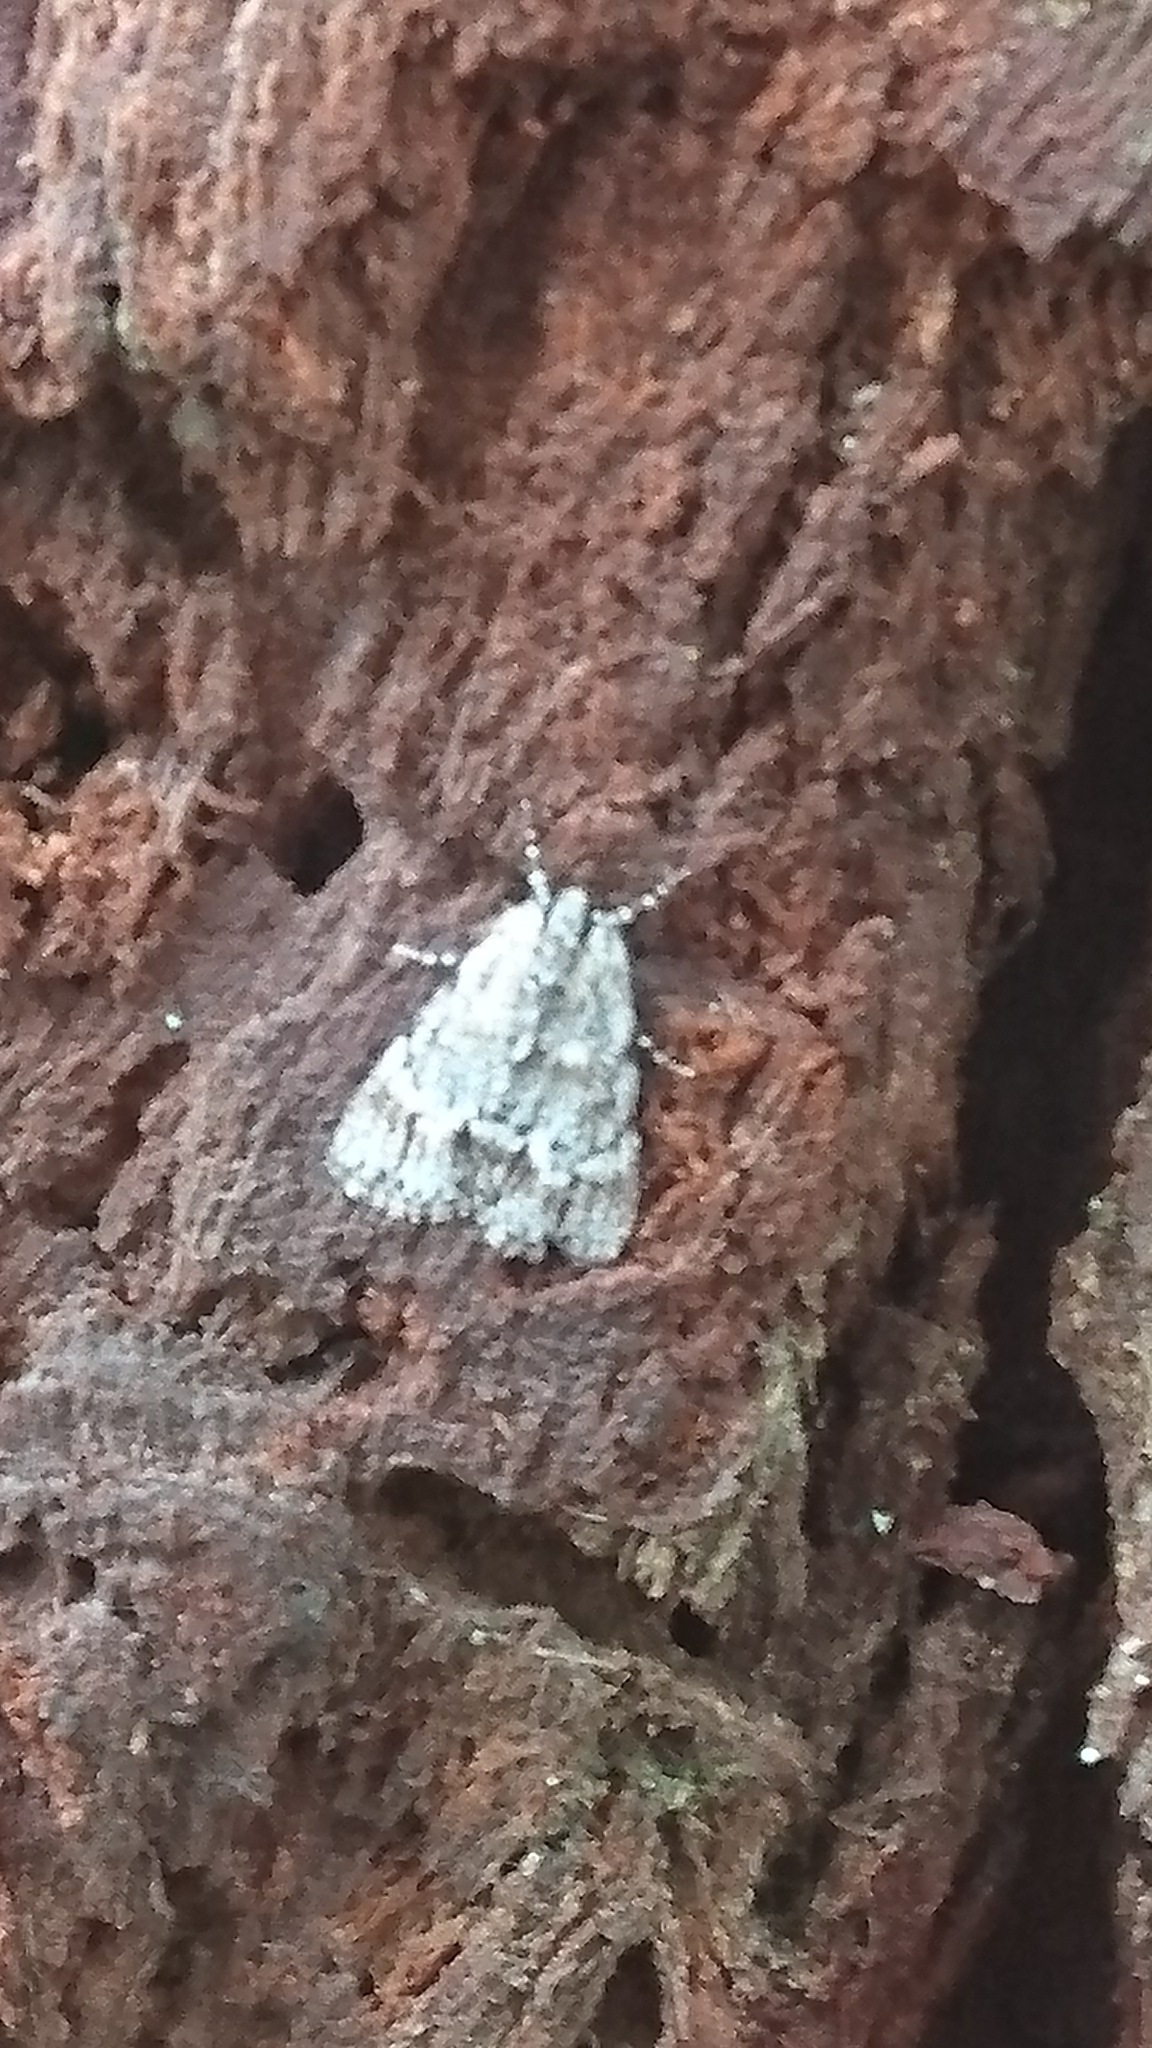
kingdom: Animalia
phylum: Arthropoda
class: Insecta
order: Lepidoptera
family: Pyralidae
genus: Stericta
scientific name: Stericta concisella
